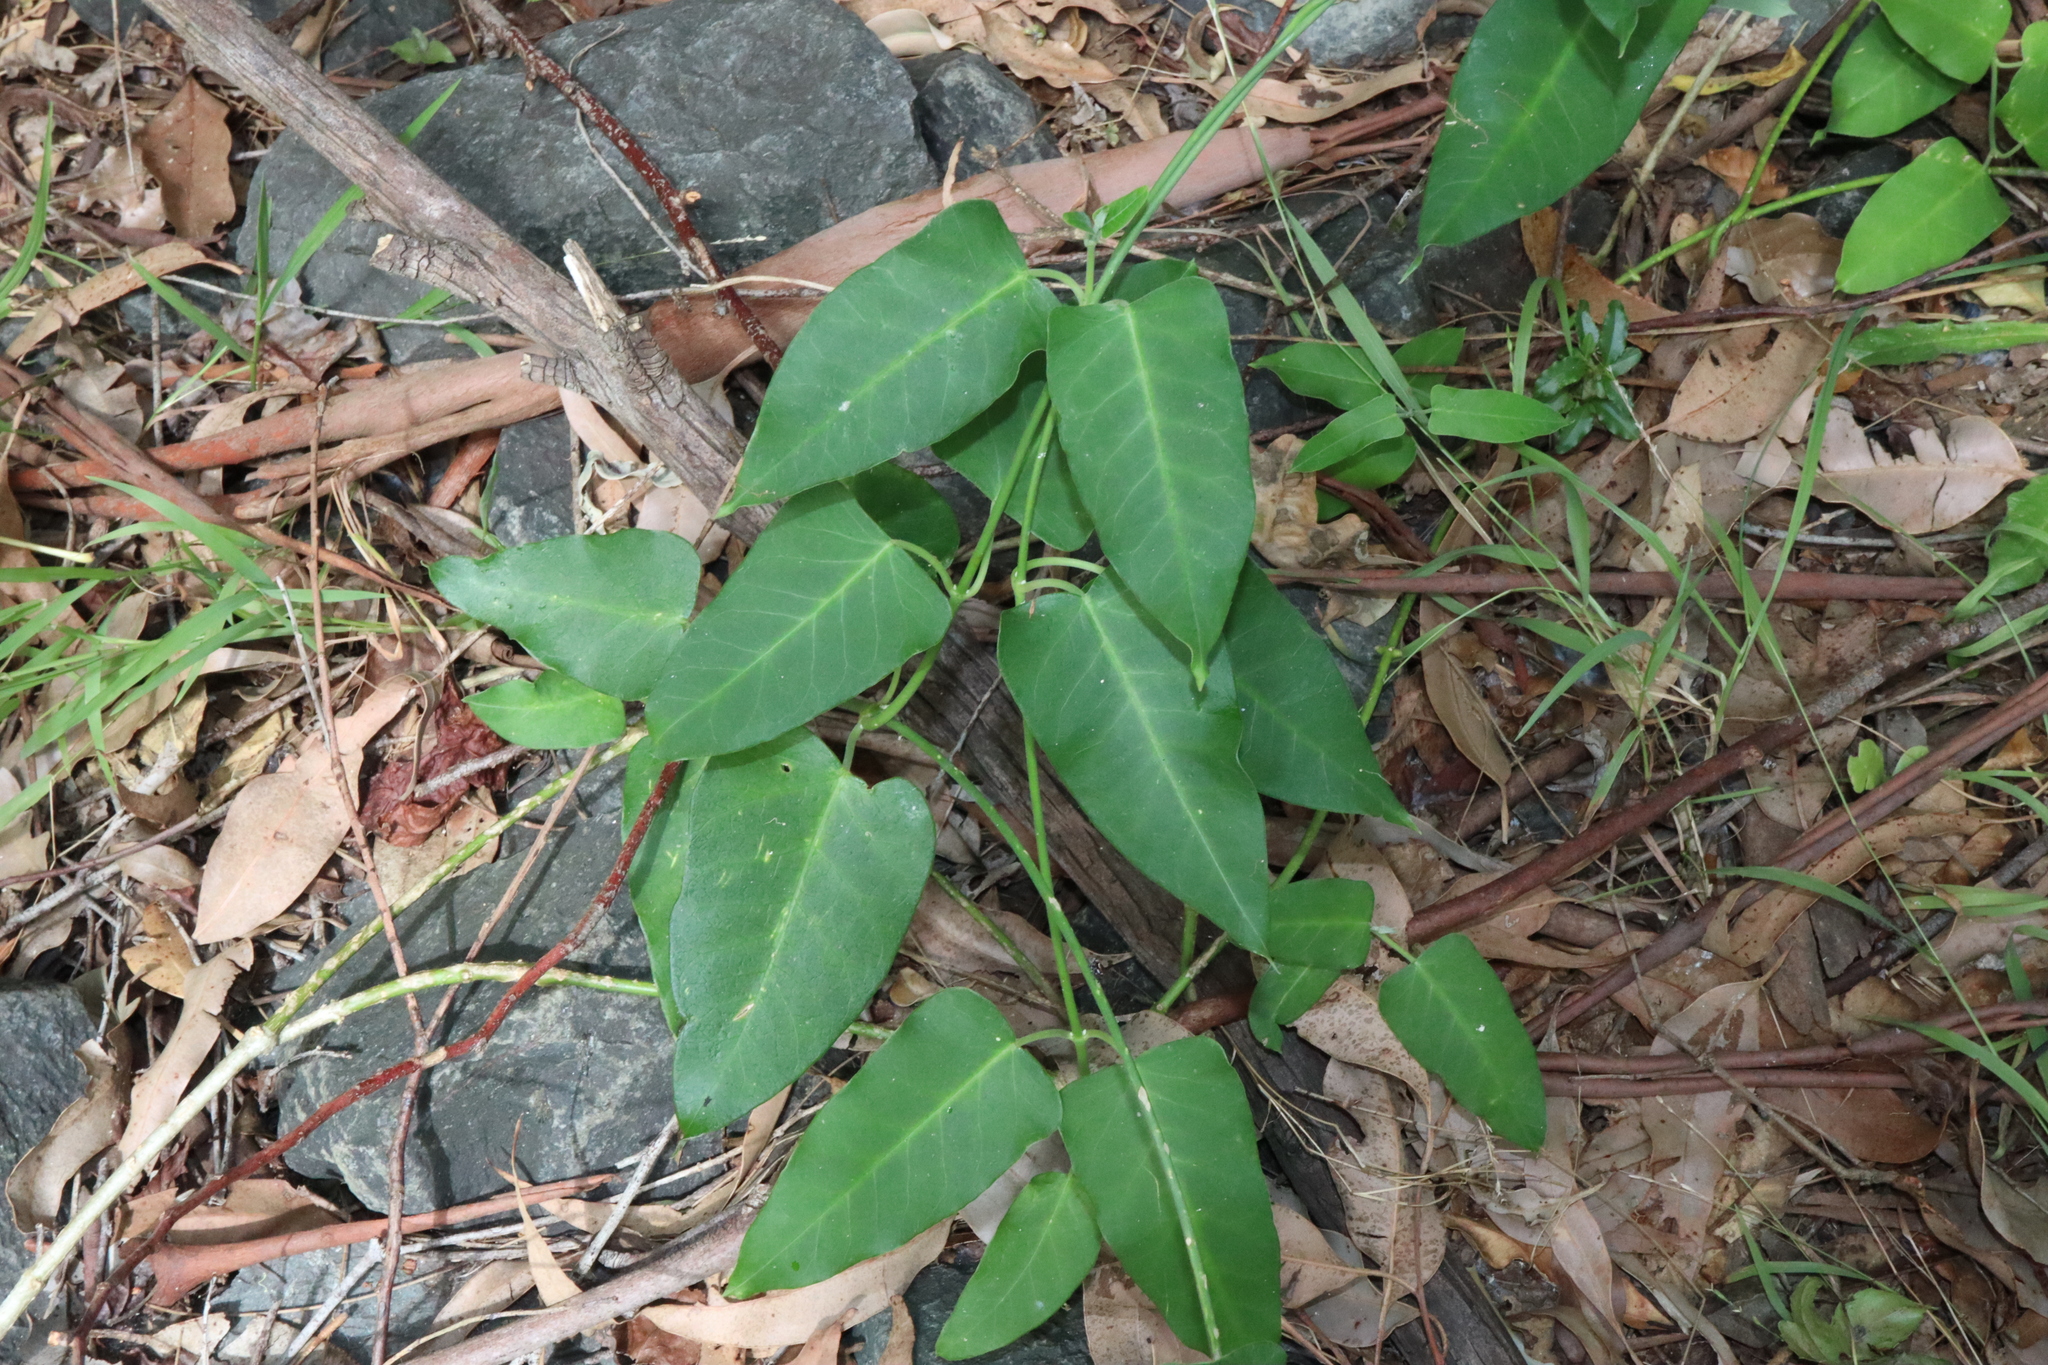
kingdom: Plantae
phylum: Tracheophyta
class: Magnoliopsida
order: Gentianales
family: Apocynaceae
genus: Araujia
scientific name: Araujia sericifera
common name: White bladderflower
